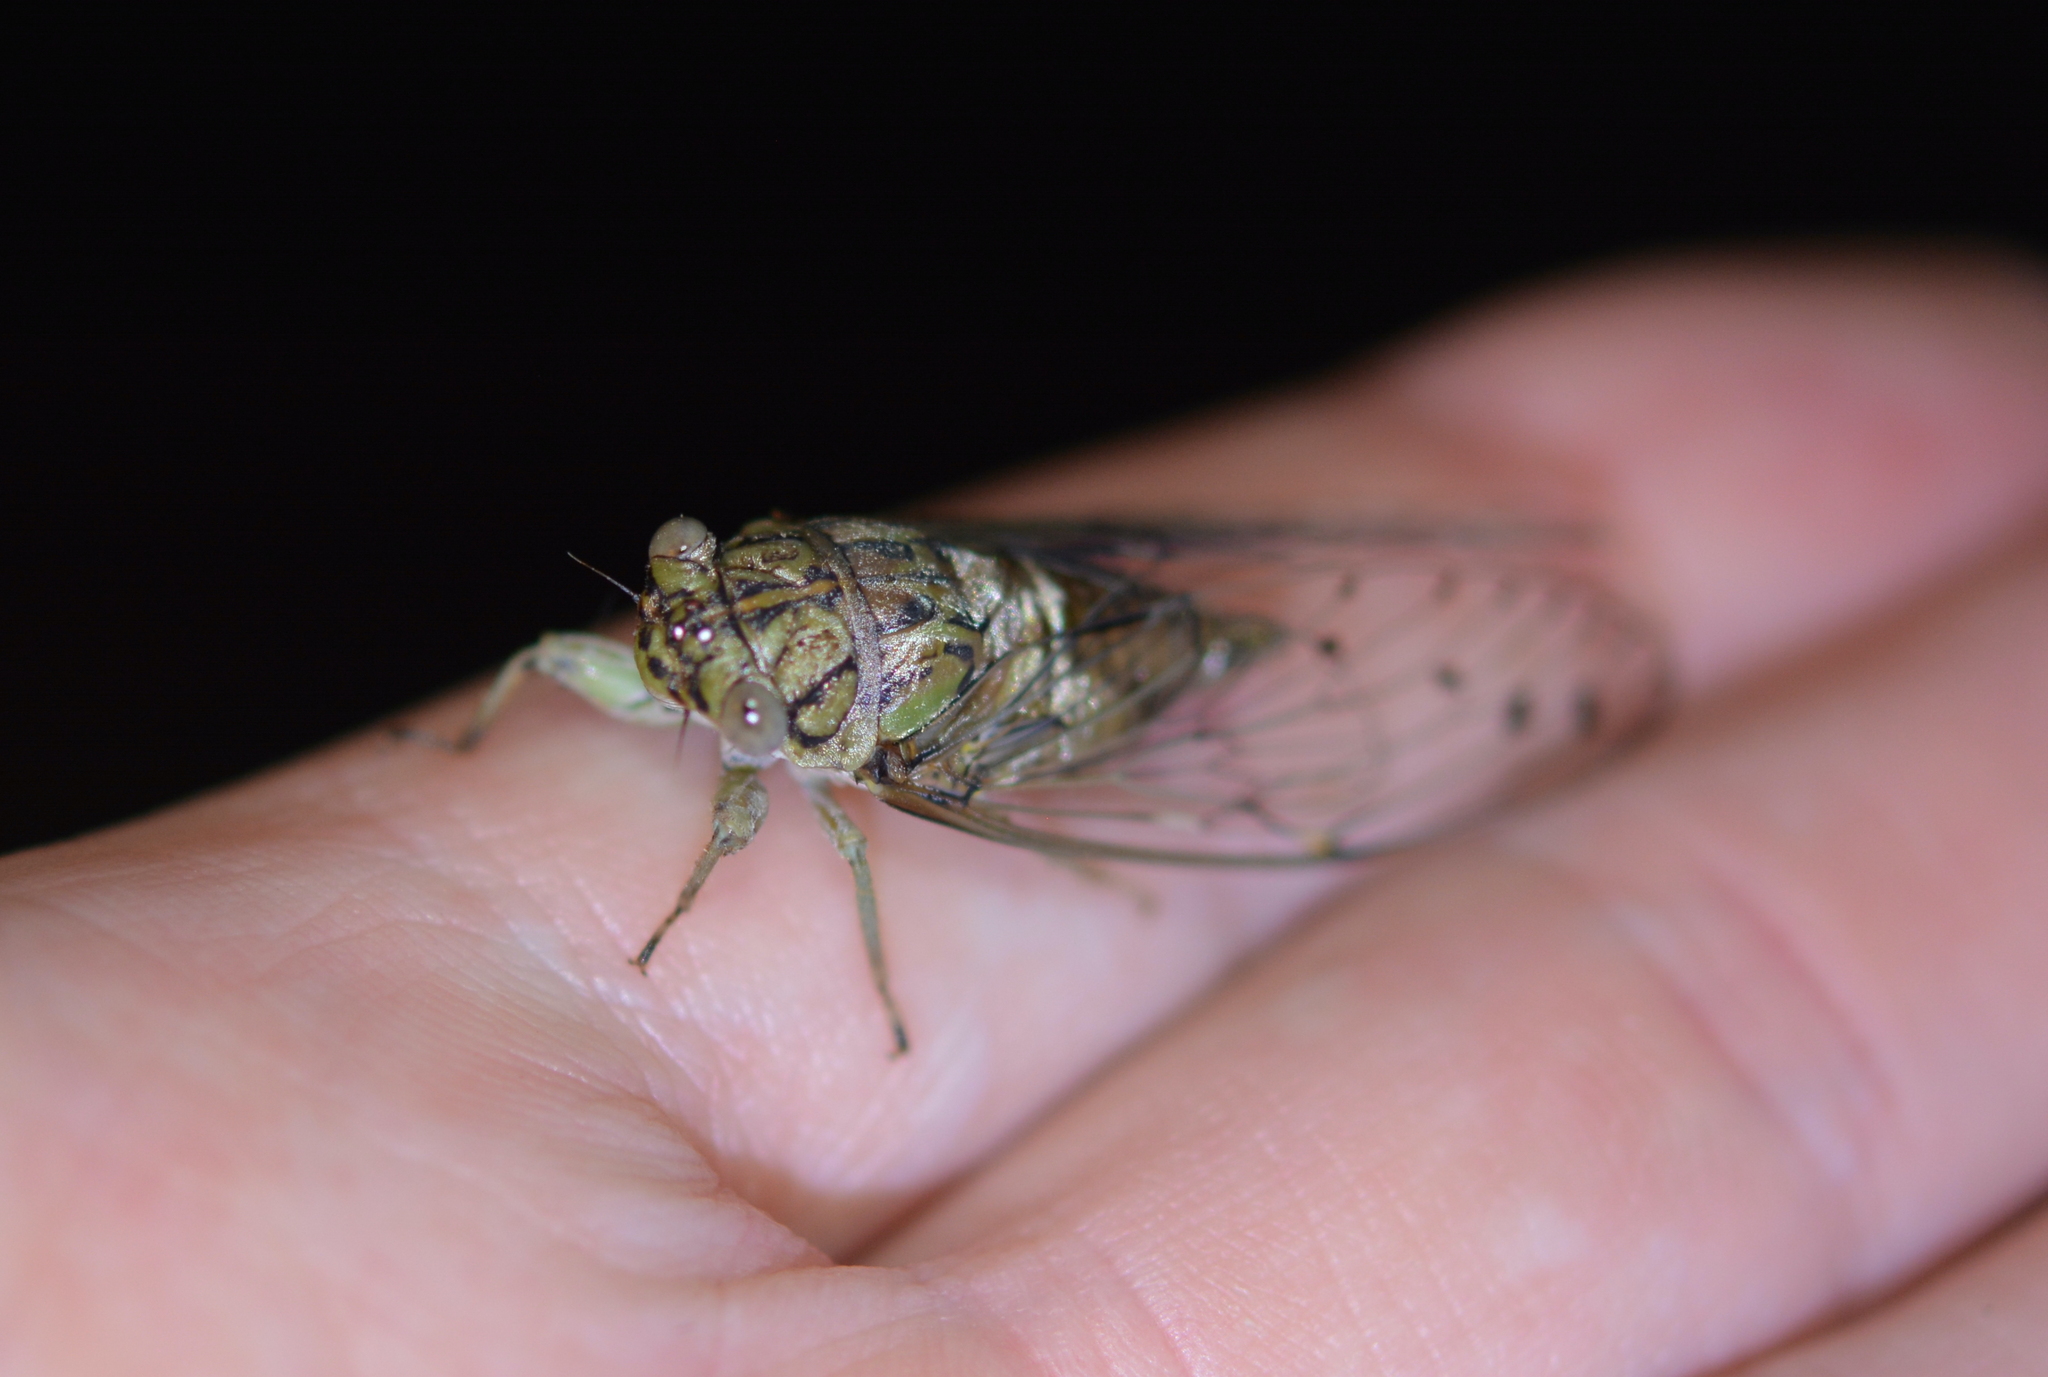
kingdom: Animalia
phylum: Arthropoda
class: Insecta
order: Hemiptera
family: Cicadidae
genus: Neocicada
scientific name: Neocicada hieroglyphica
